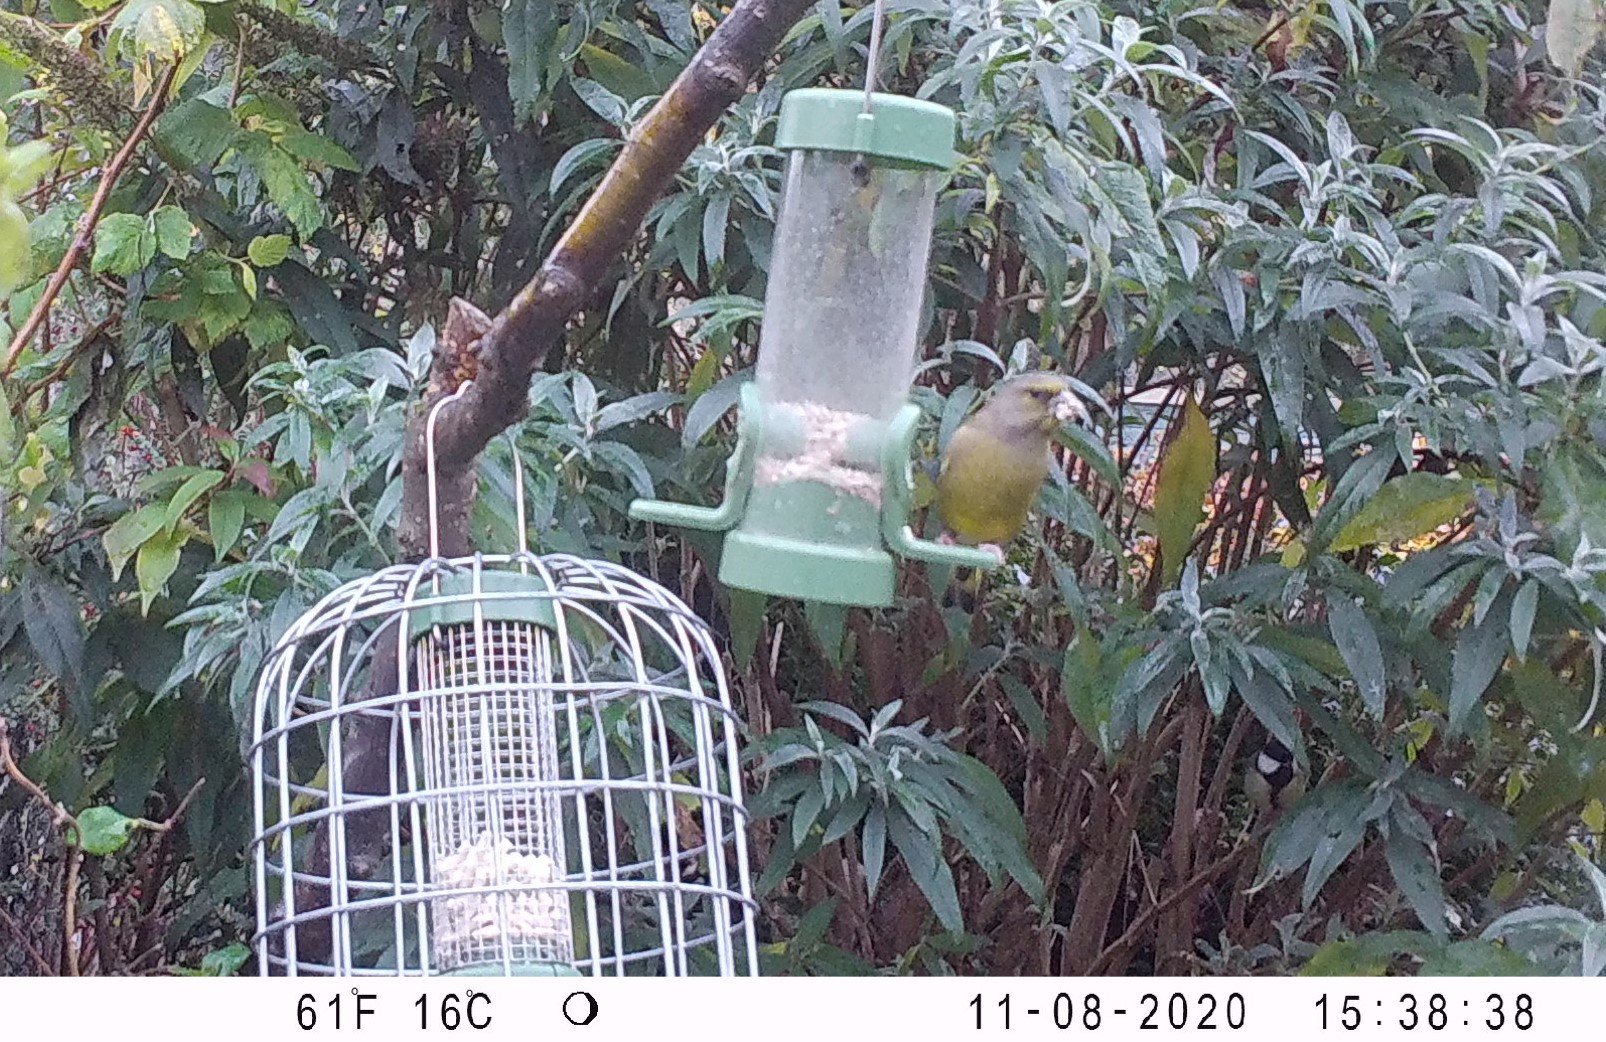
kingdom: Plantae
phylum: Tracheophyta
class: Liliopsida
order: Poales
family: Poaceae
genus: Chloris
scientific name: Chloris chloris
